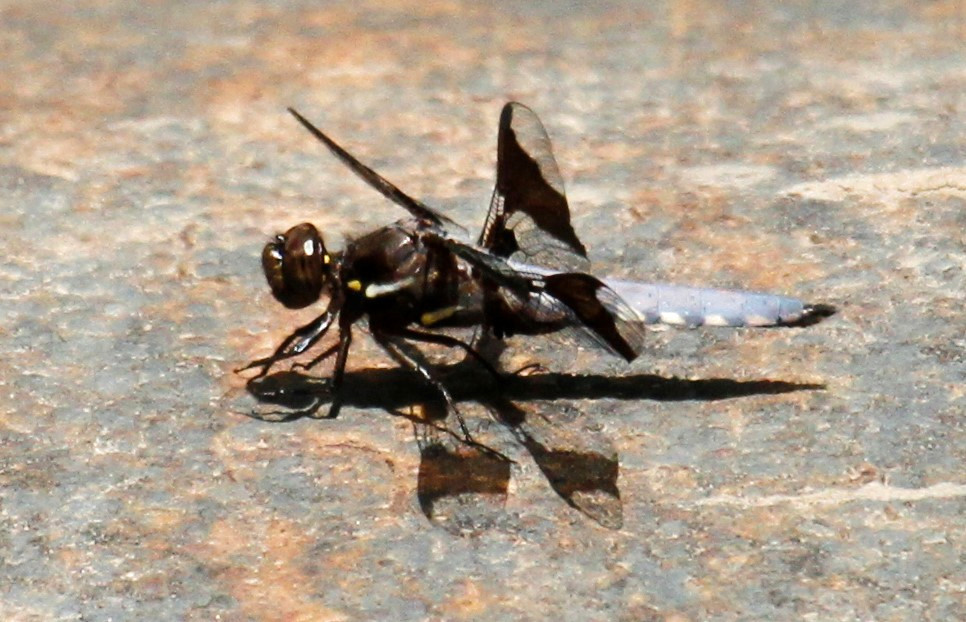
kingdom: Animalia
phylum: Arthropoda
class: Insecta
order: Odonata
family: Libellulidae
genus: Plathemis
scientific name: Plathemis lydia
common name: Common whitetail
